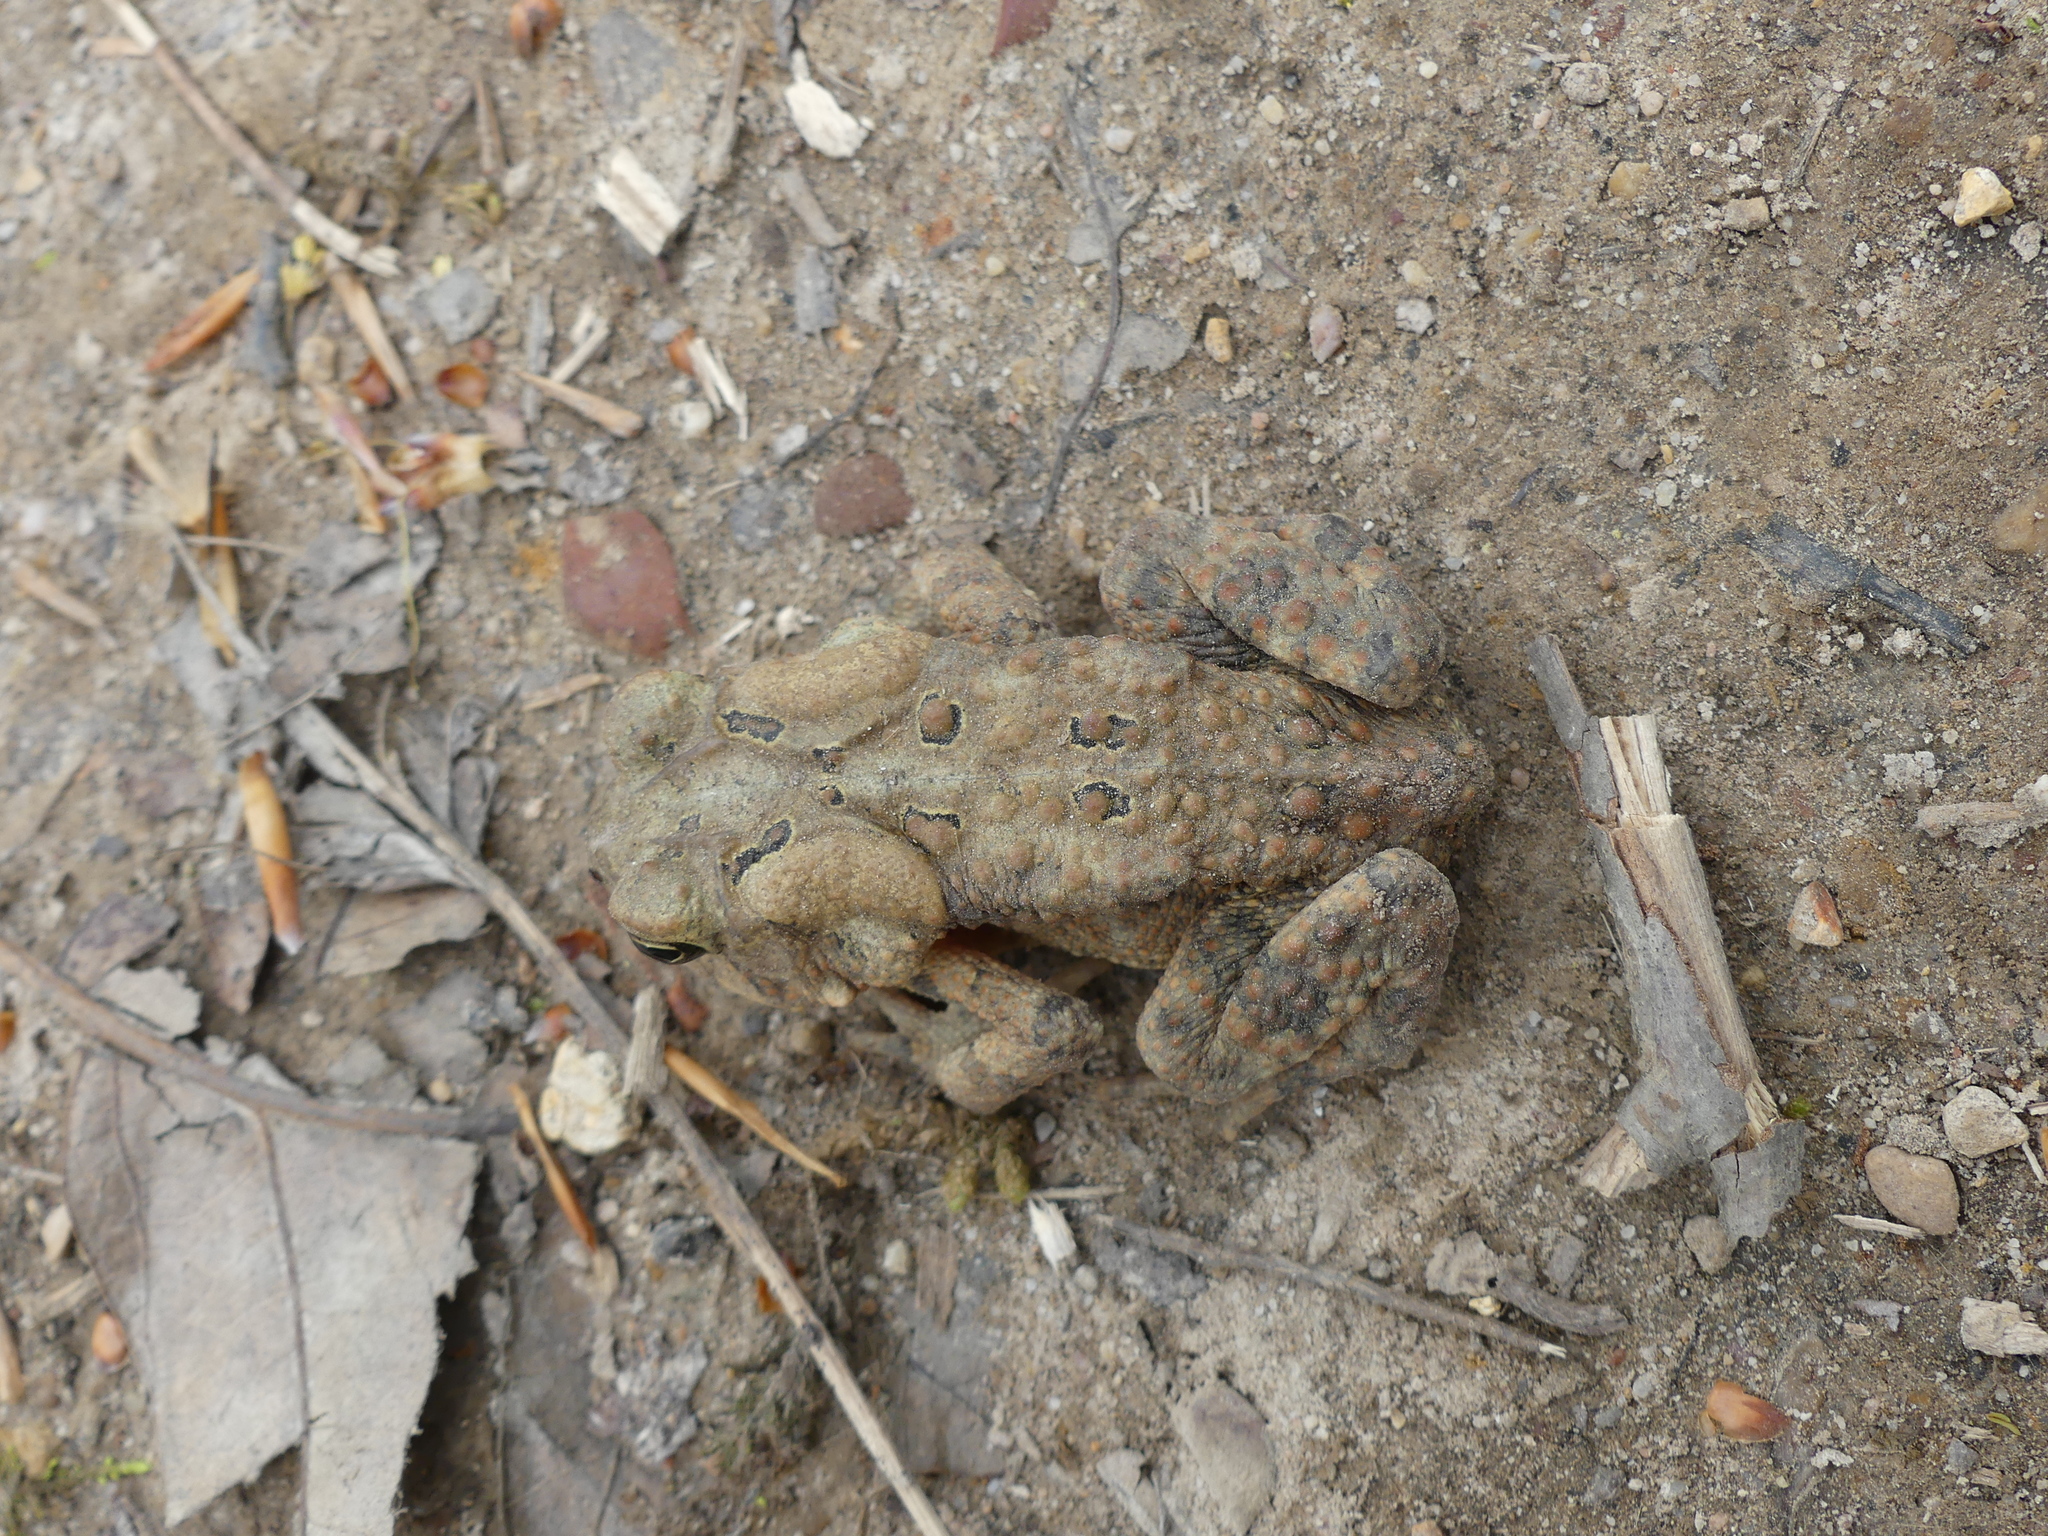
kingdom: Animalia
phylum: Chordata
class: Amphibia
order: Anura
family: Bufonidae
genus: Anaxyrus
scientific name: Anaxyrus americanus
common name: American toad
